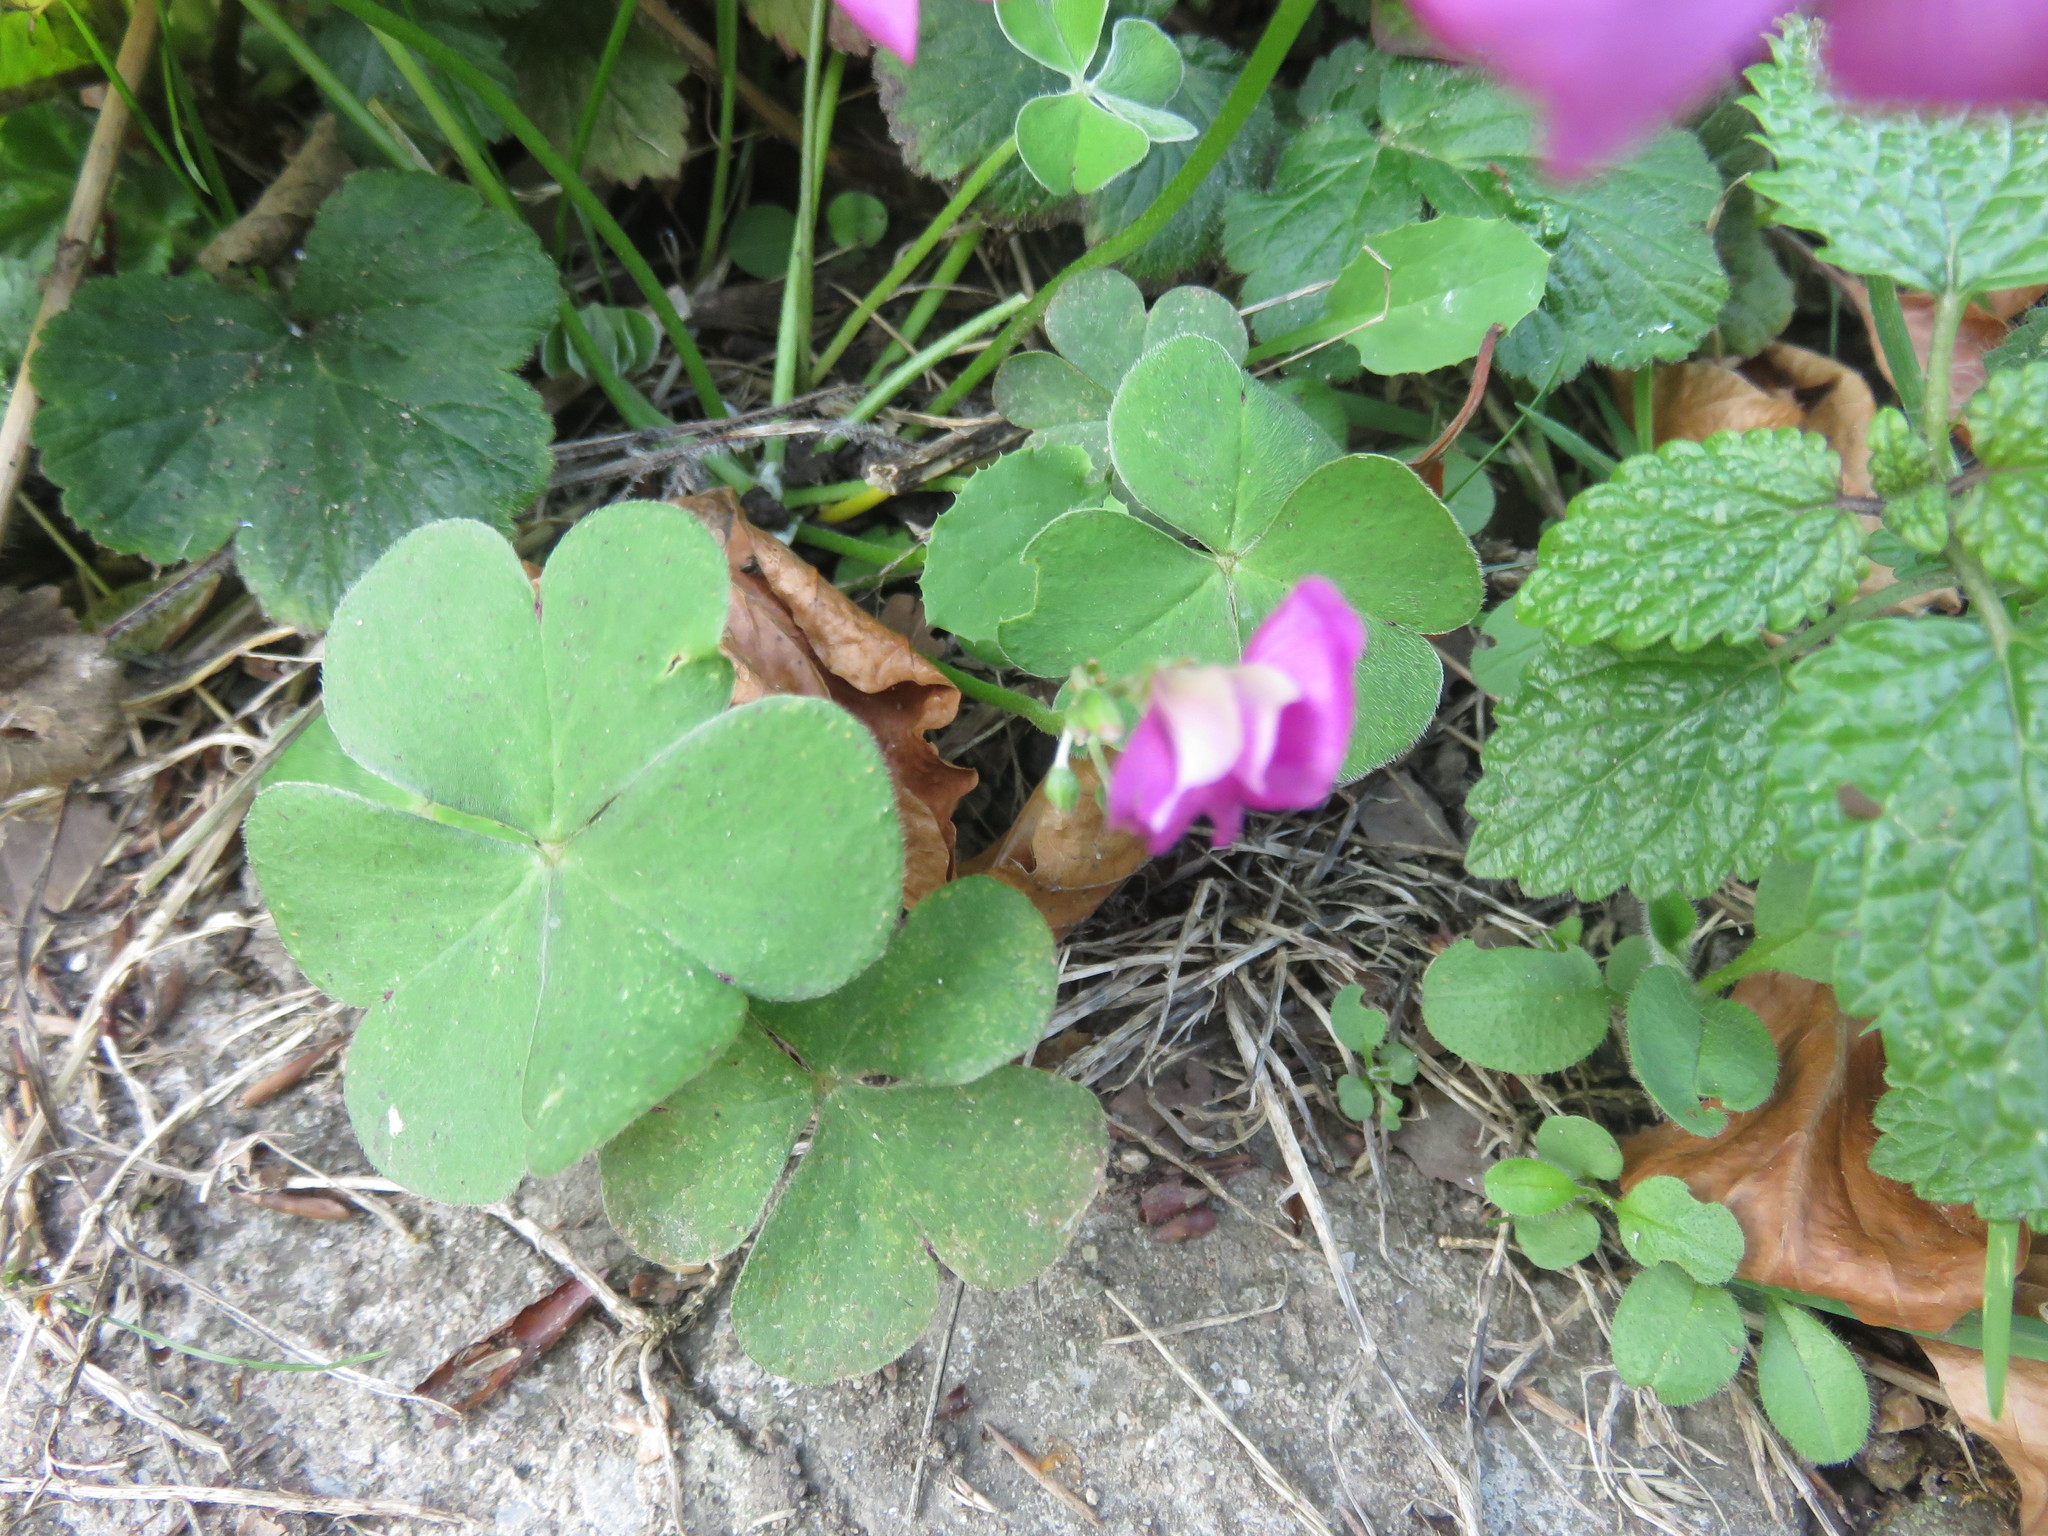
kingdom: Plantae
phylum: Tracheophyta
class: Magnoliopsida
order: Oxalidales
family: Oxalidaceae
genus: Oxalis
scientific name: Oxalis articulata
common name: Pink-sorrel
